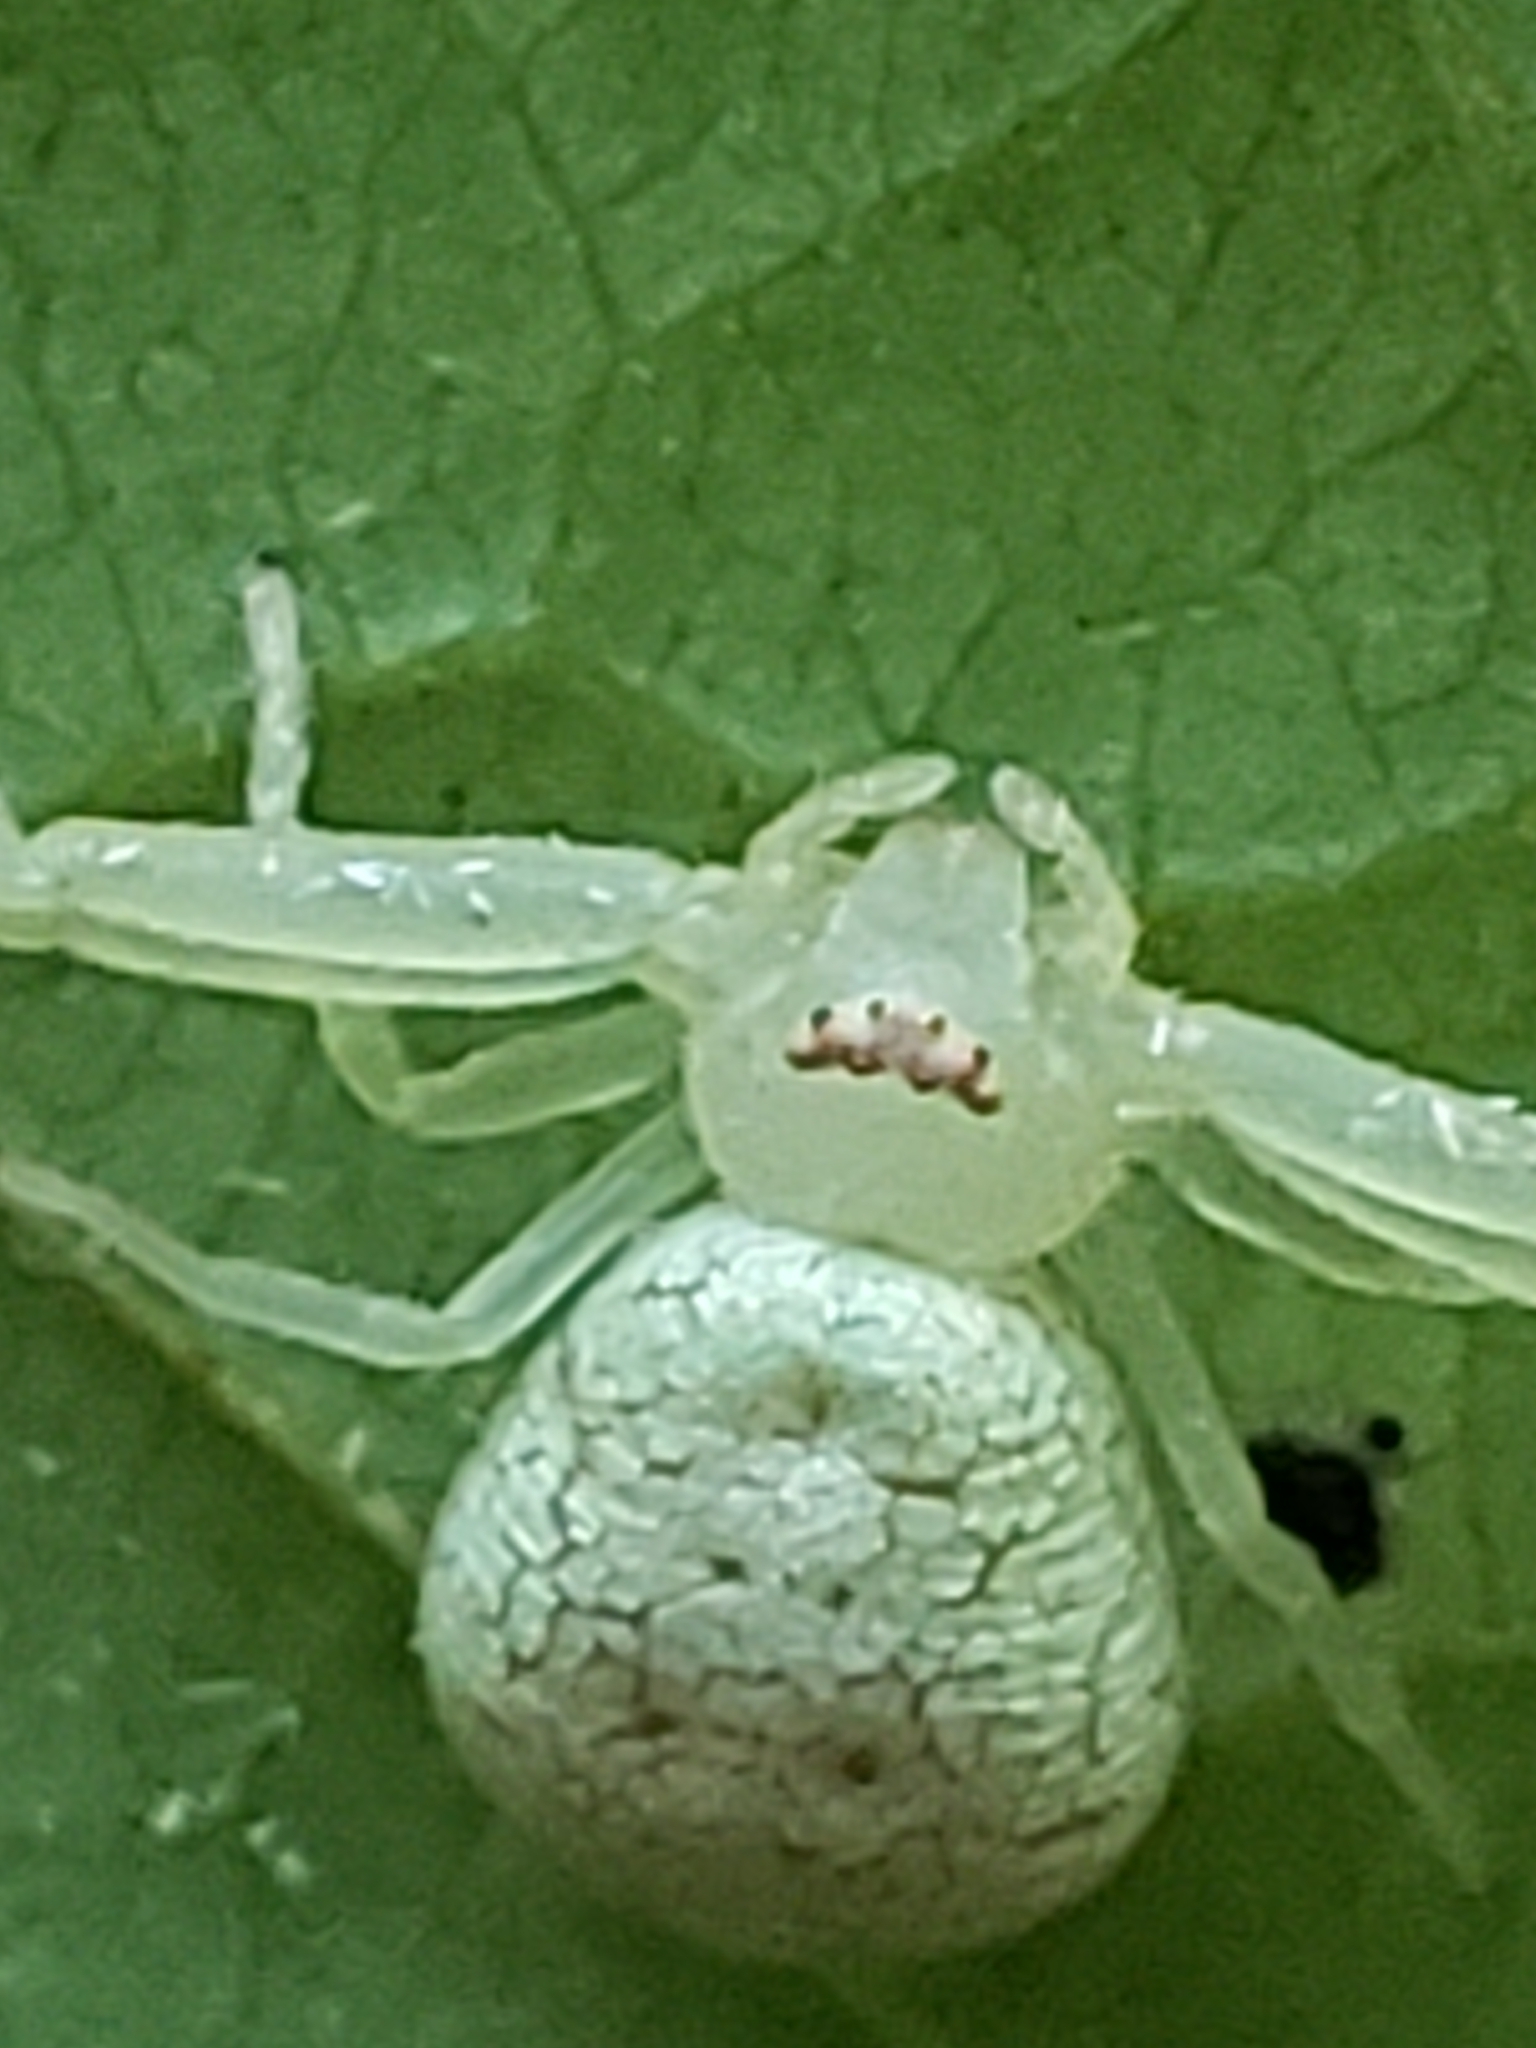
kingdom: Animalia
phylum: Arthropoda
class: Arachnida
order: Araneae
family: Thomisidae
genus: Misumessus
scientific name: Misumessus oblongus
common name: American green crab spider
